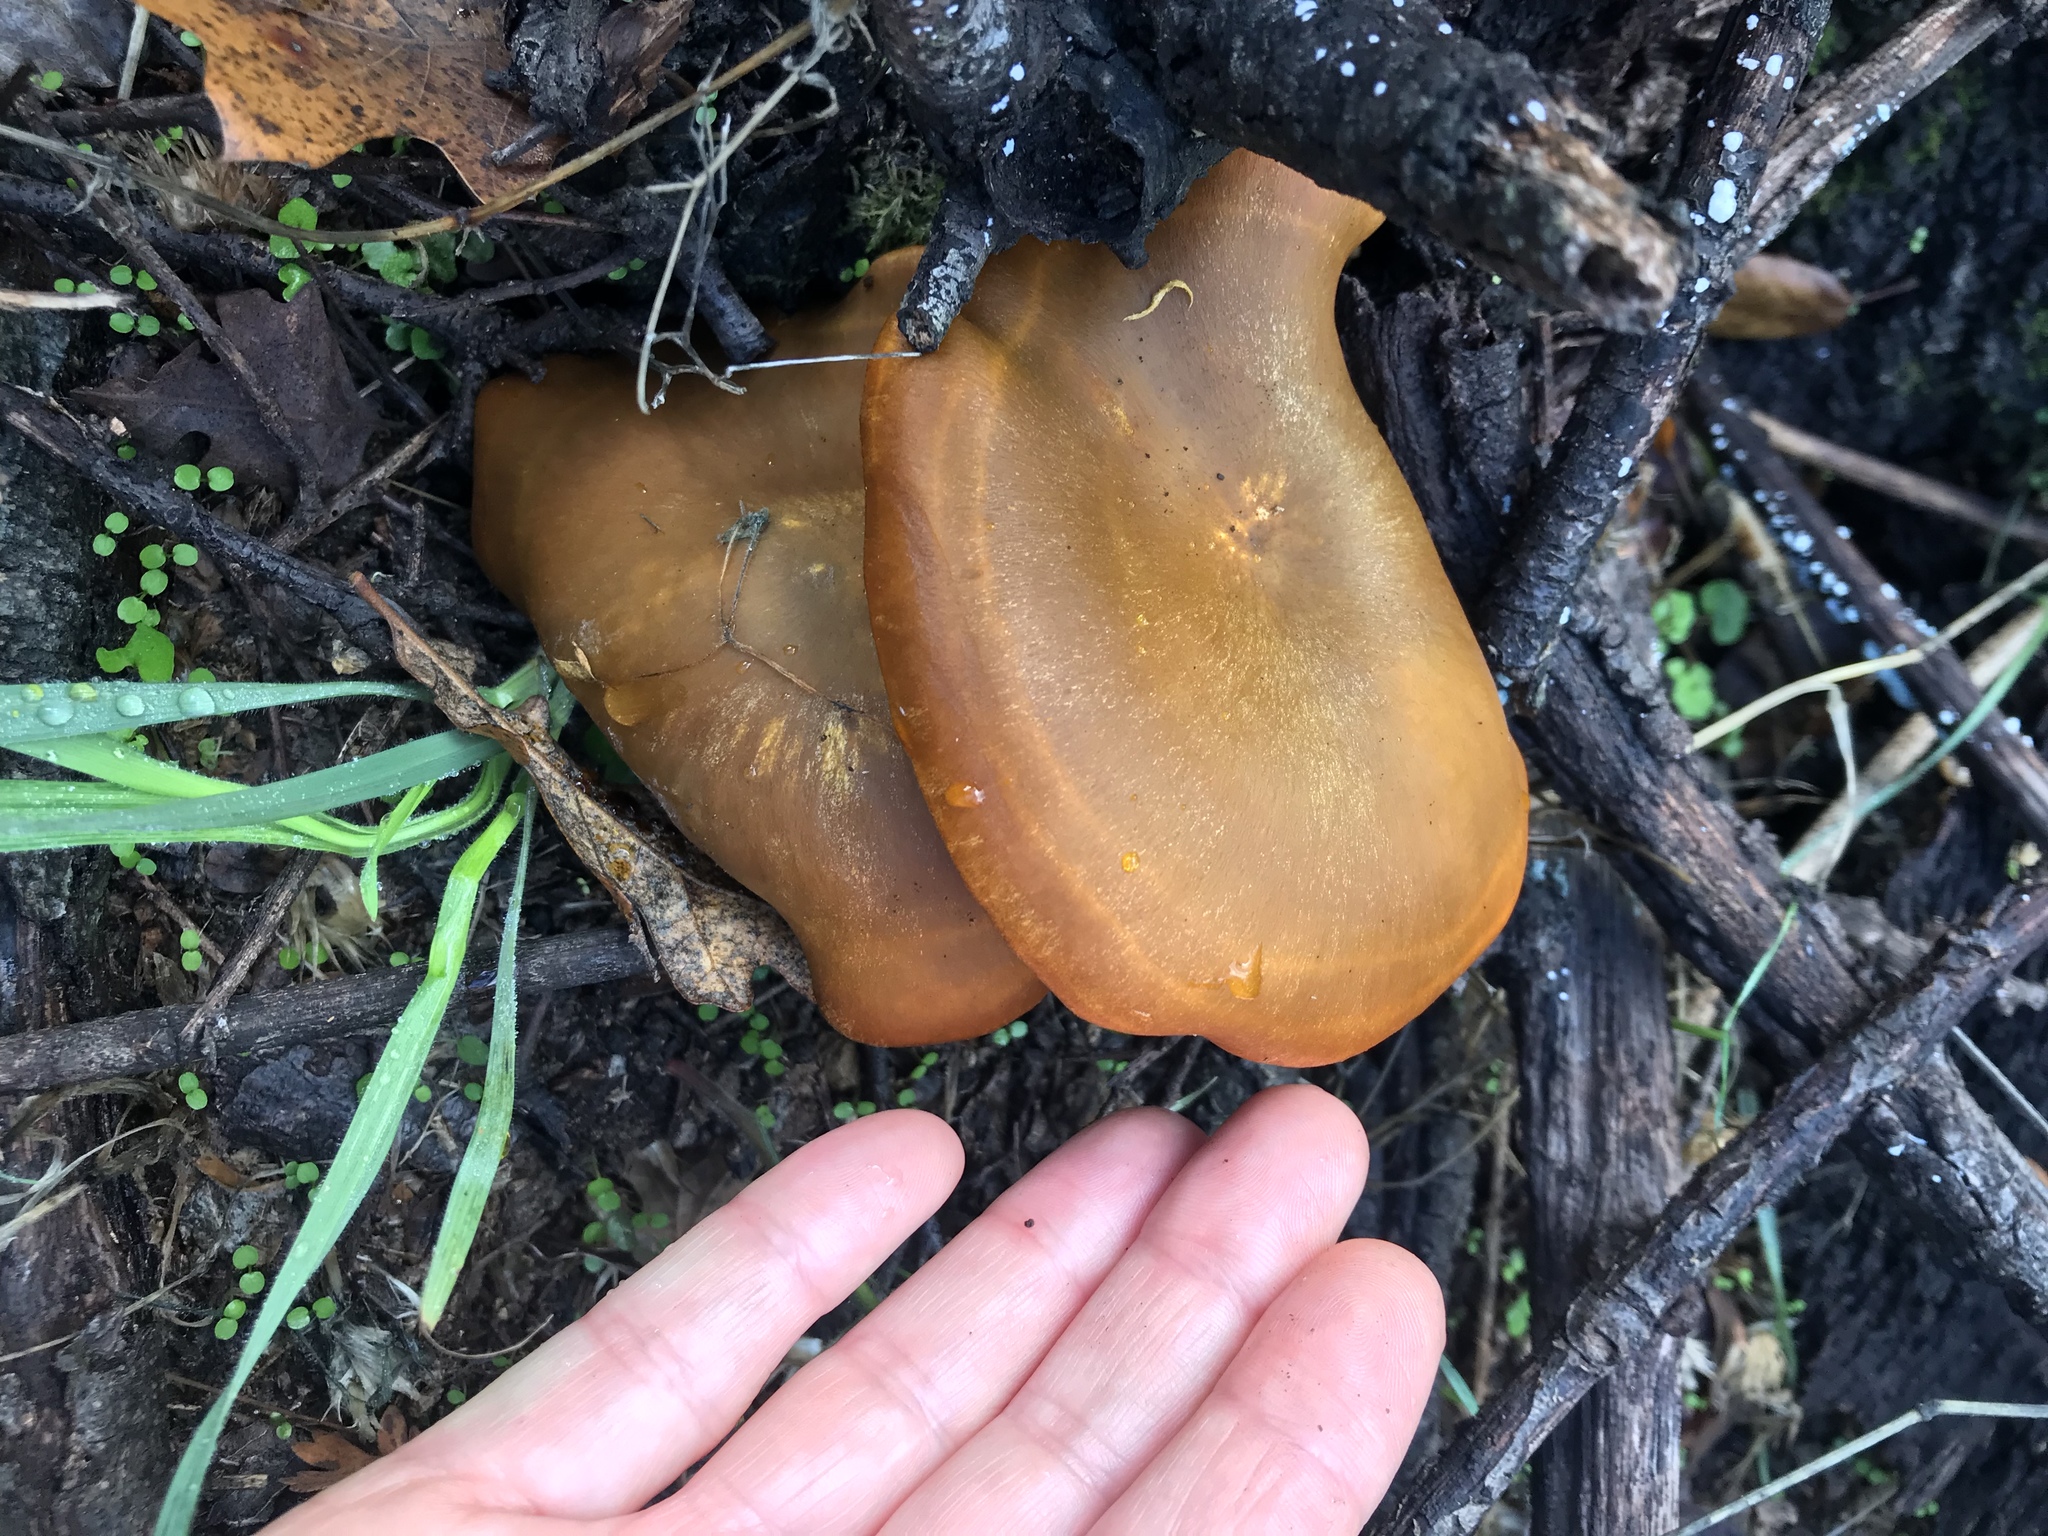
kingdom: Fungi
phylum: Basidiomycota
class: Agaricomycetes
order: Agaricales
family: Omphalotaceae
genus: Omphalotus
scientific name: Omphalotus olivascens
